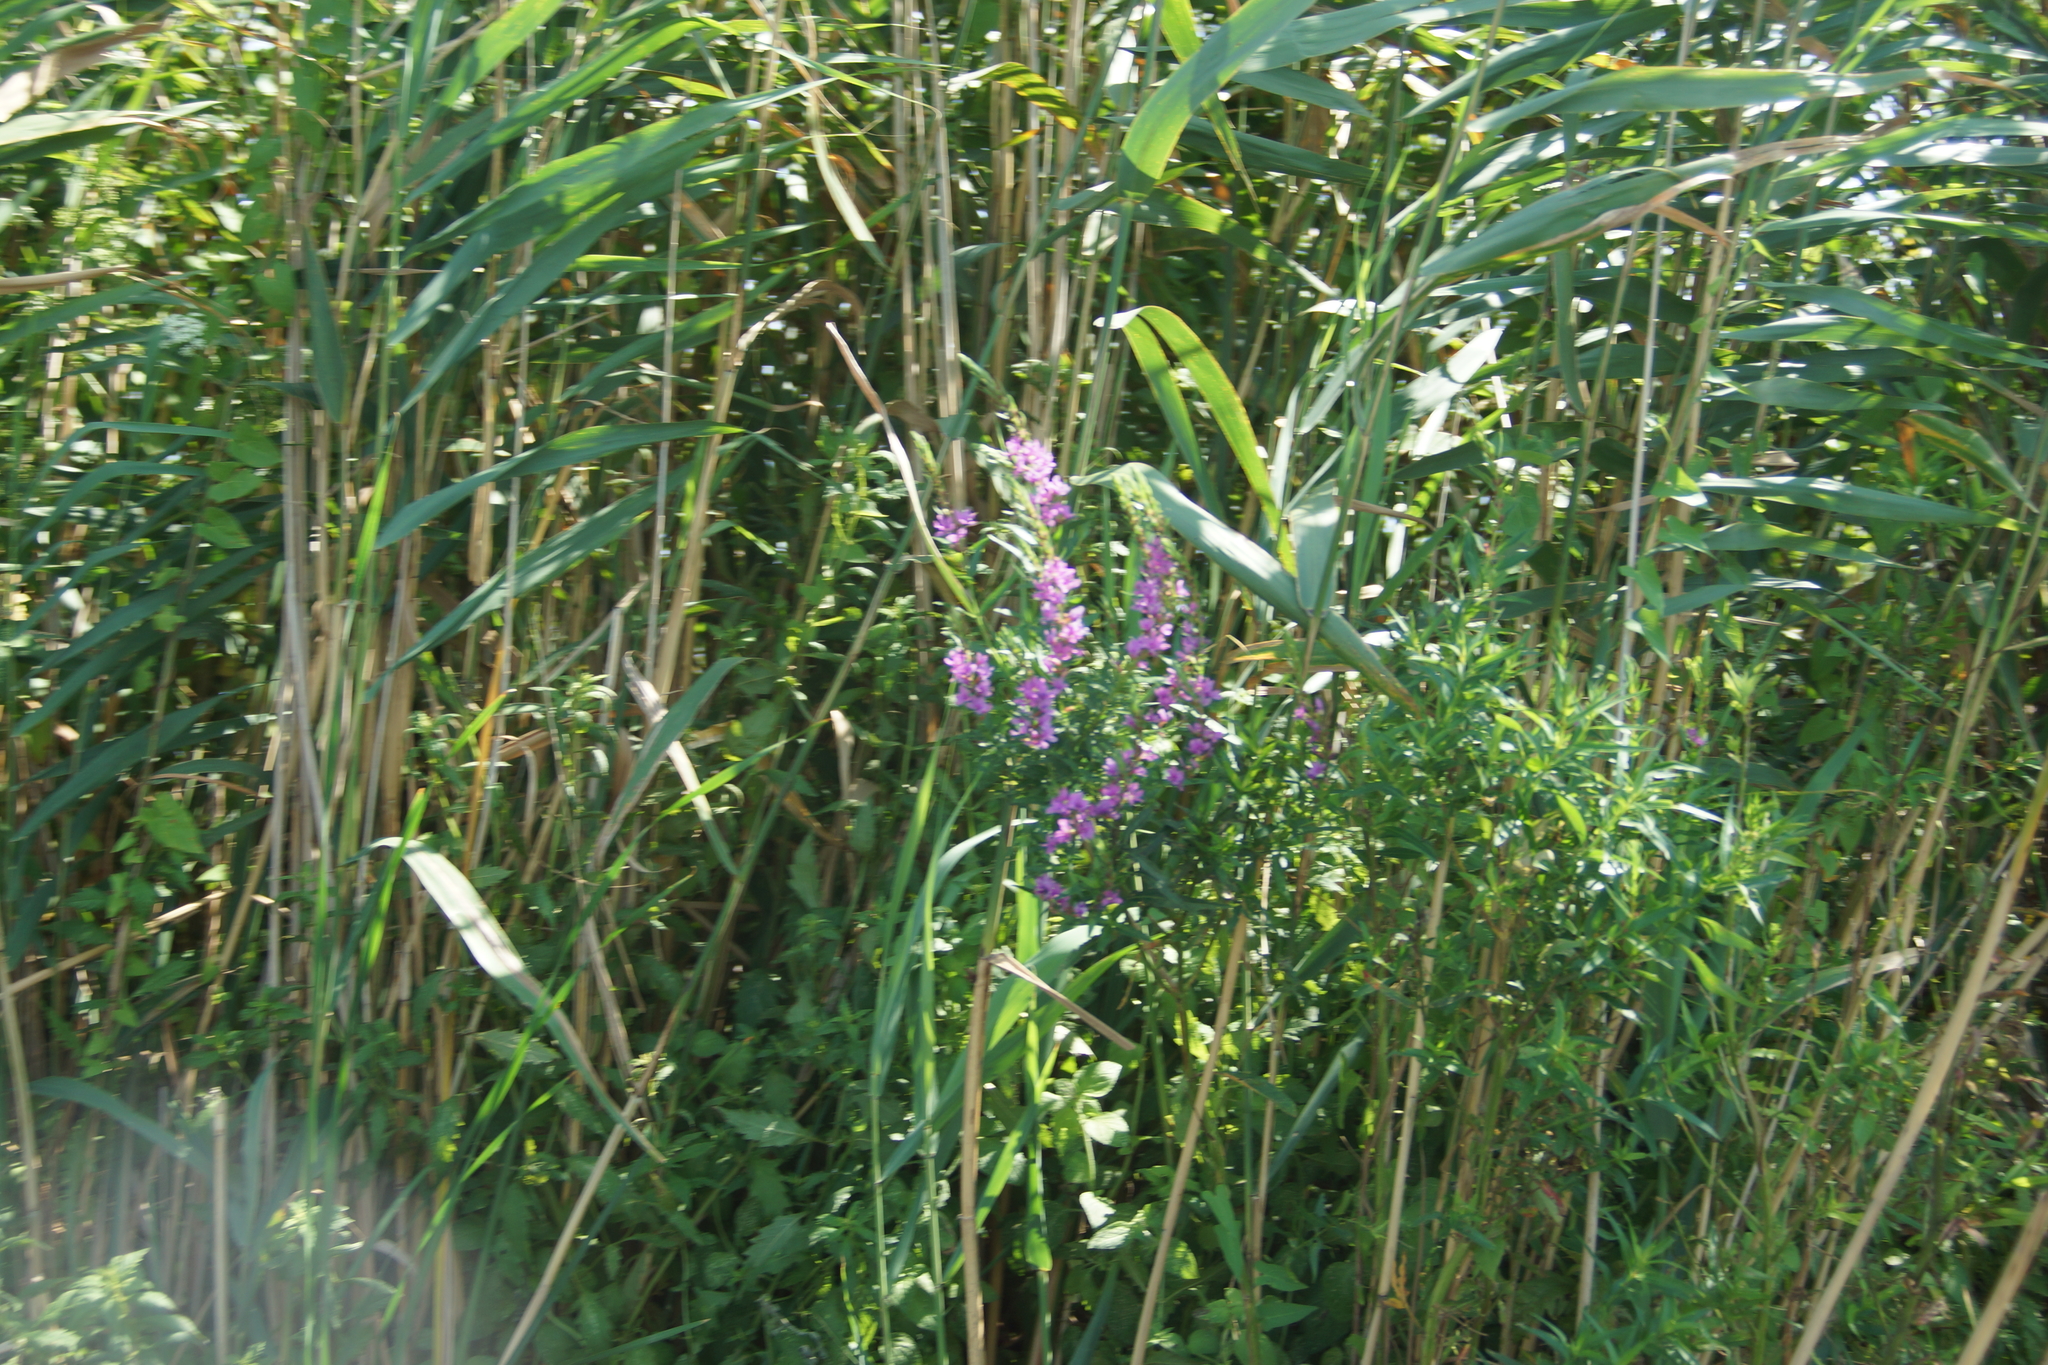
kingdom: Plantae
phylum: Tracheophyta
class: Magnoliopsida
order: Myrtales
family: Lythraceae
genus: Lythrum
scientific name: Lythrum salicaria
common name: Purple loosestrife
